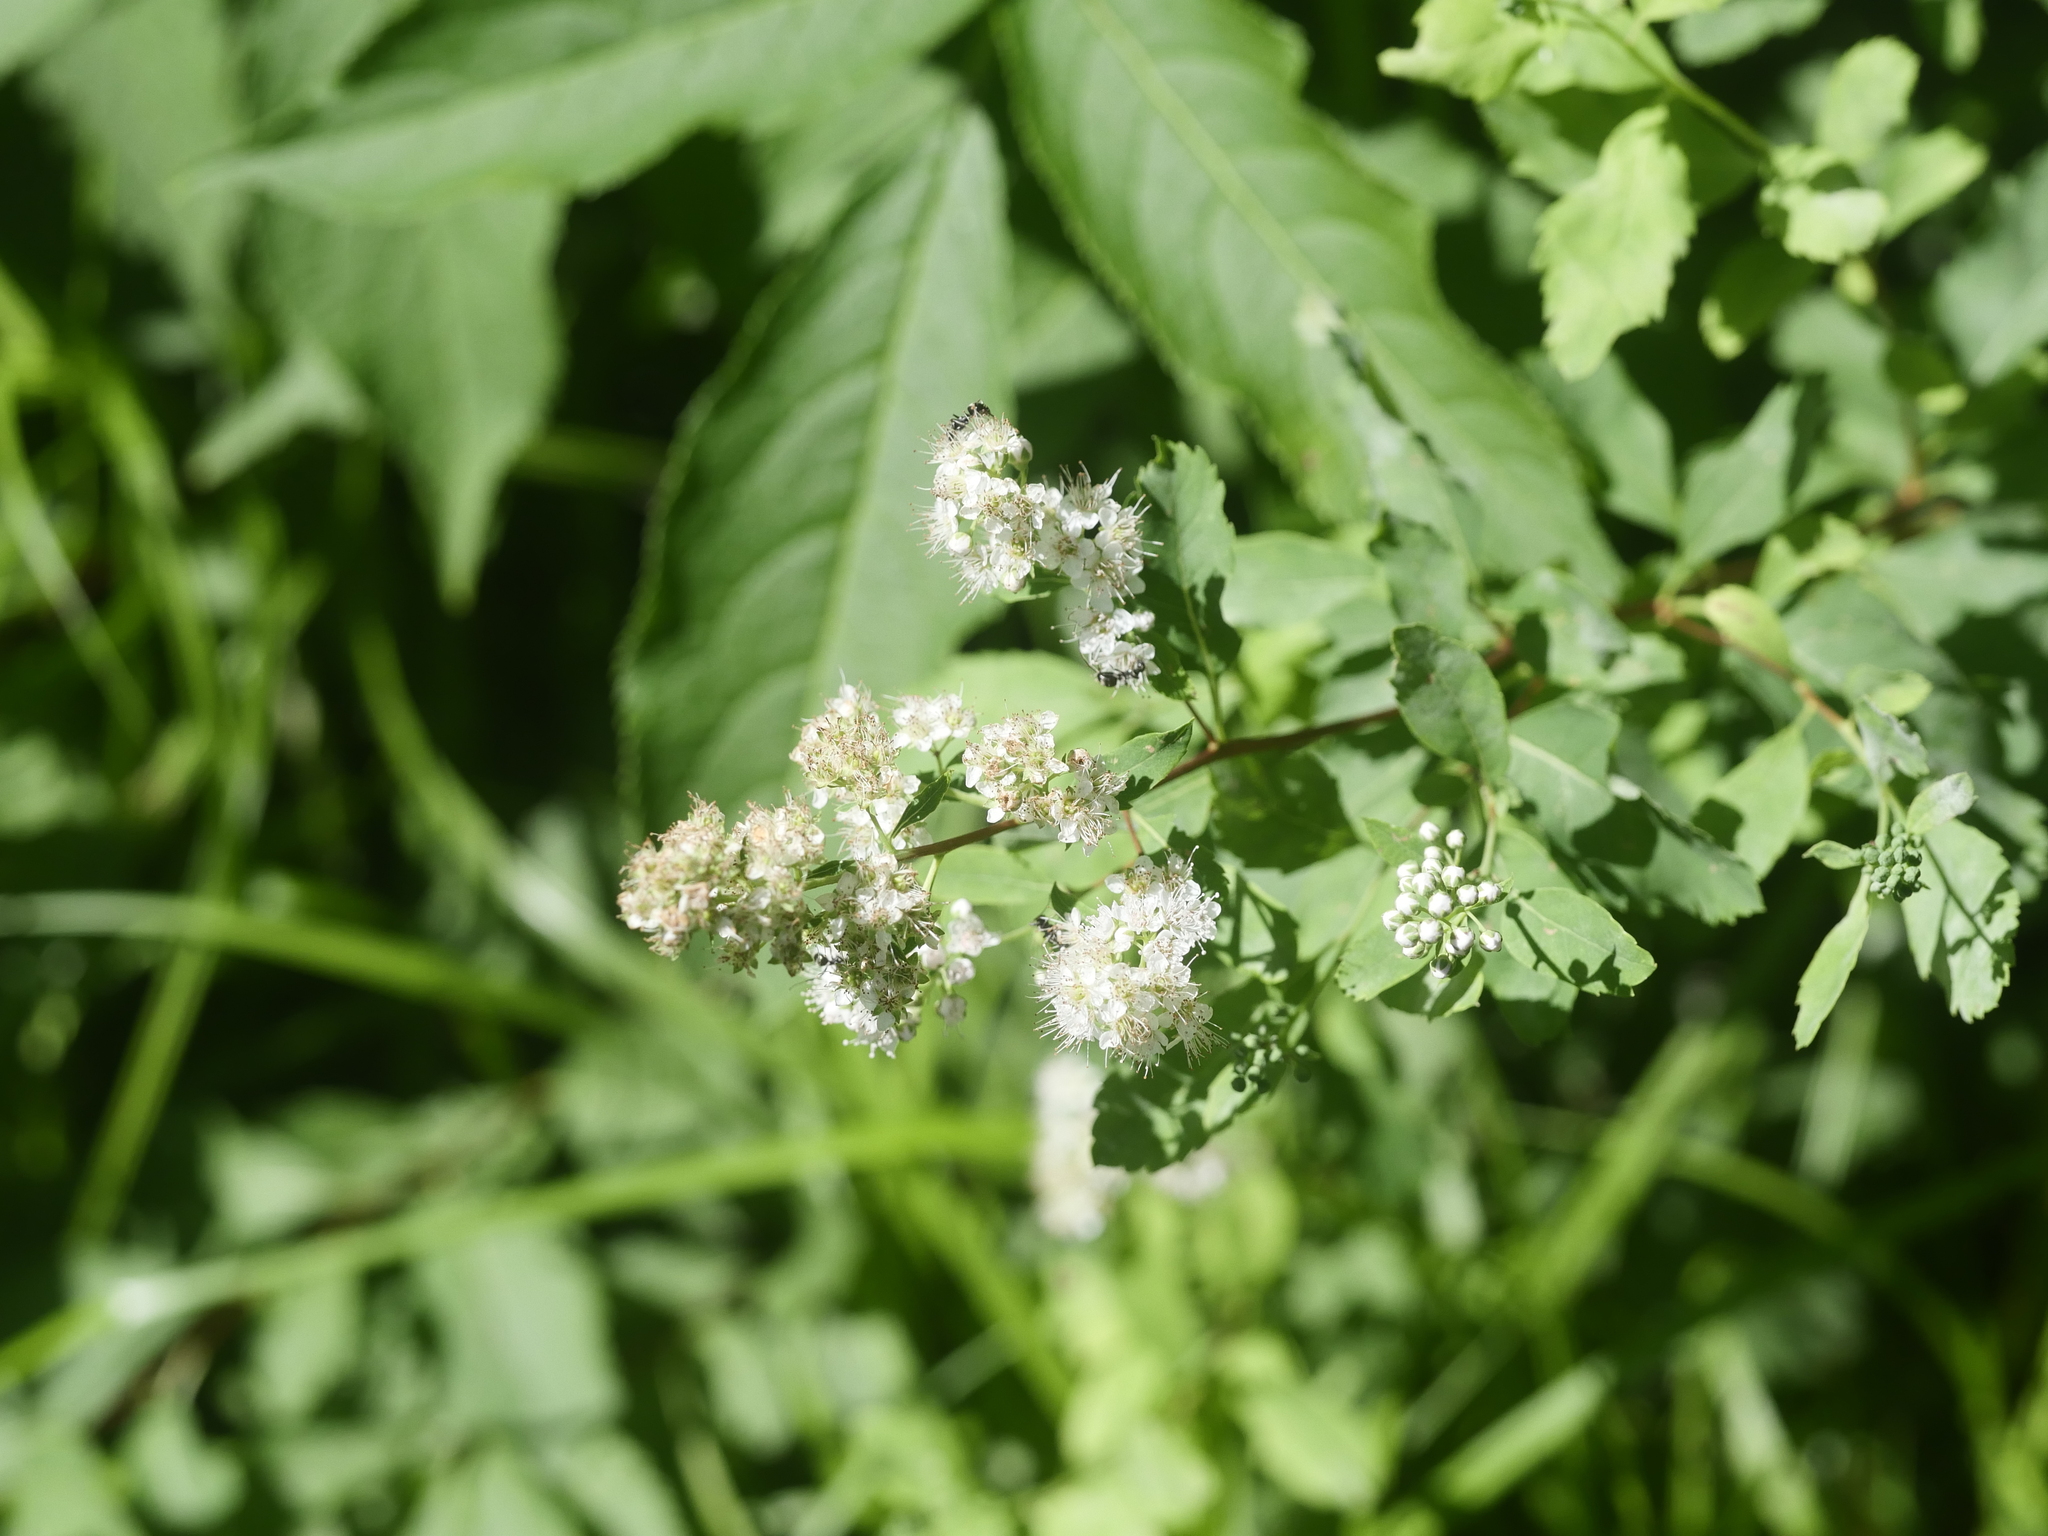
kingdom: Plantae
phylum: Tracheophyta
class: Magnoliopsida
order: Rosales
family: Rosaceae
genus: Spiraea
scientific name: Spiraea alba
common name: Pale bridewort
